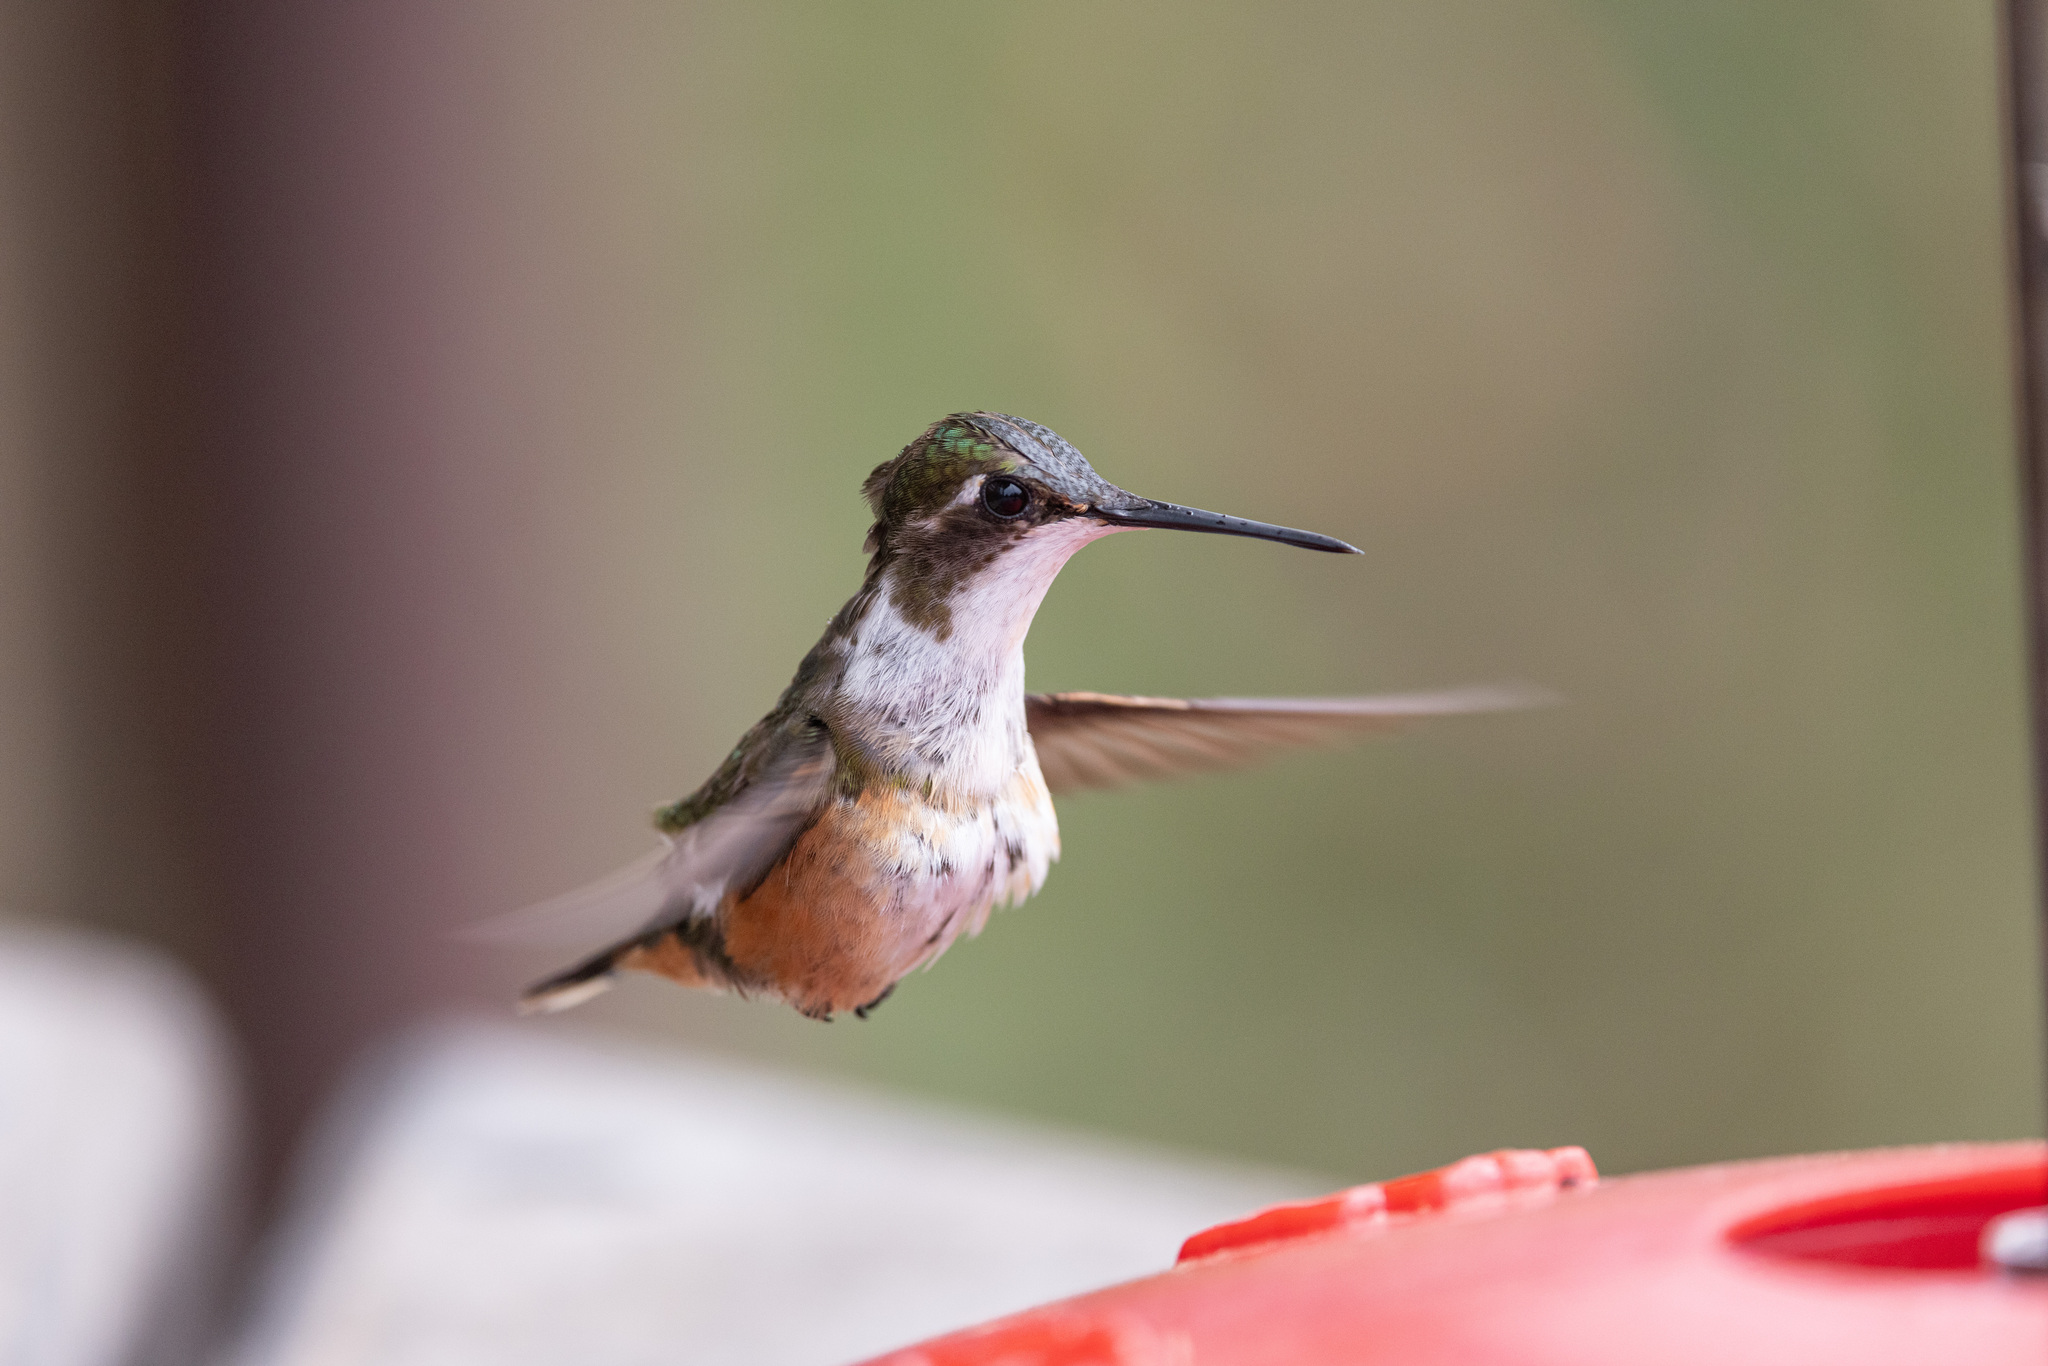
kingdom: Animalia
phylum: Chordata
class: Aves
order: Apodiformes
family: Trochilidae
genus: Calliphlox
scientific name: Calliphlox bryantae
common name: Magenta-throated woodstar
